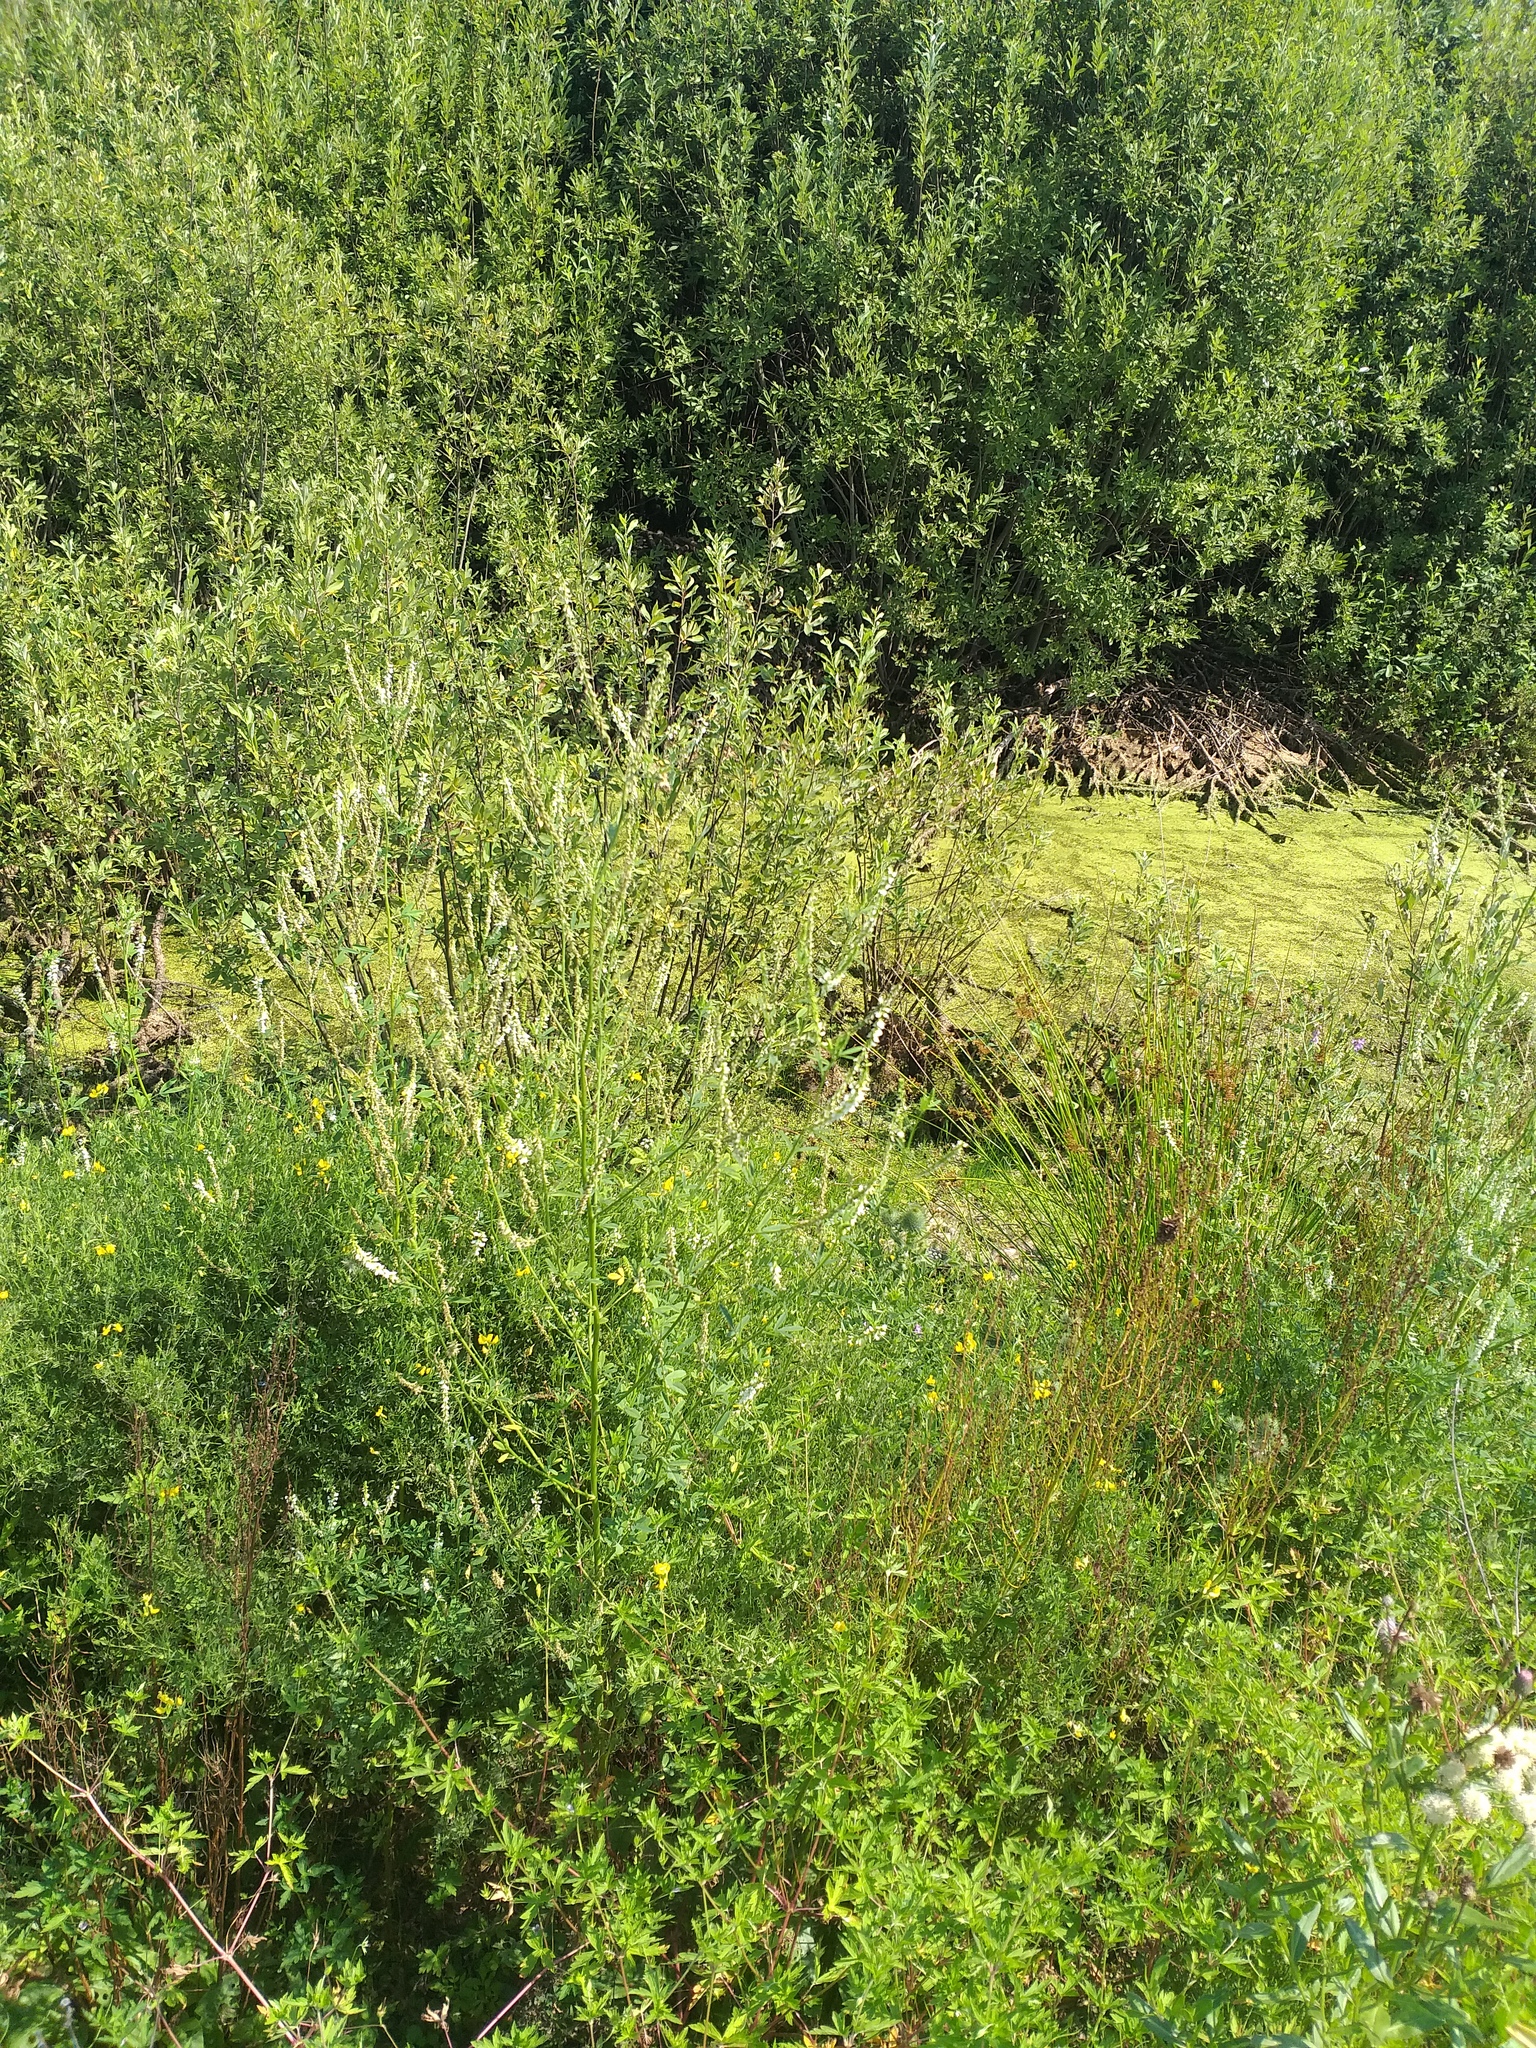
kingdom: Plantae
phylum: Tracheophyta
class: Magnoliopsida
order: Fabales
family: Fabaceae
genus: Melilotus
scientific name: Melilotus albus
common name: White melilot
